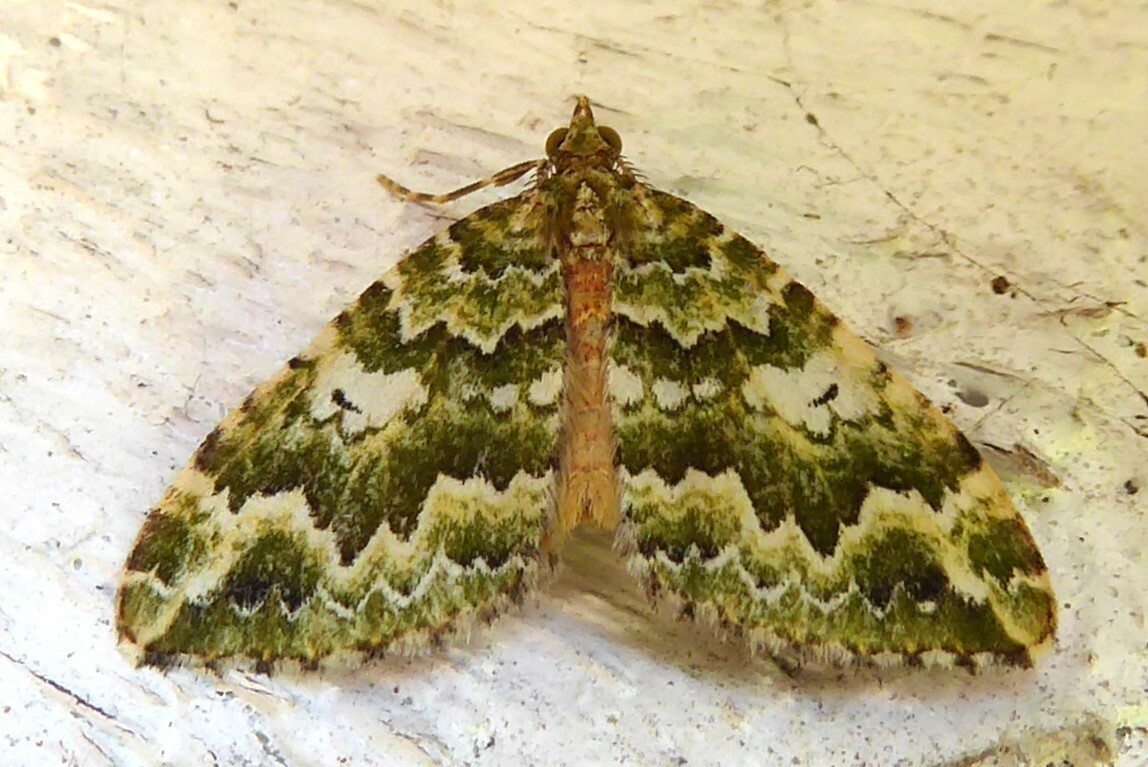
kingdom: Animalia
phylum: Arthropoda
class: Insecta
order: Lepidoptera
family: Geometridae
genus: Asaphodes
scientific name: Asaphodes beata
